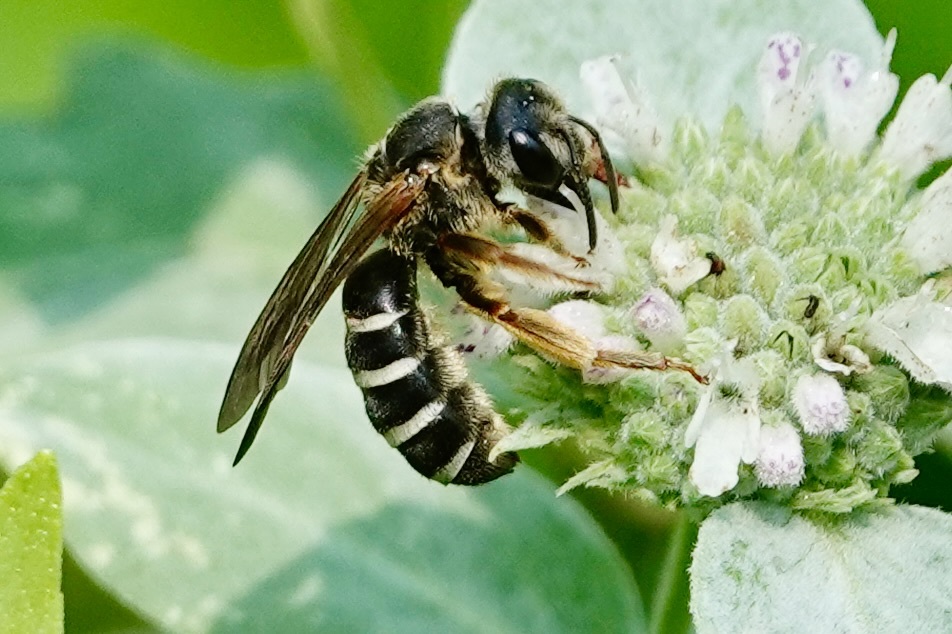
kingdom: Animalia
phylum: Arthropoda
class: Insecta
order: Hymenoptera
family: Halictidae
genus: Halictus
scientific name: Halictus parallelus
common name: Parallel-striped sweat bee
